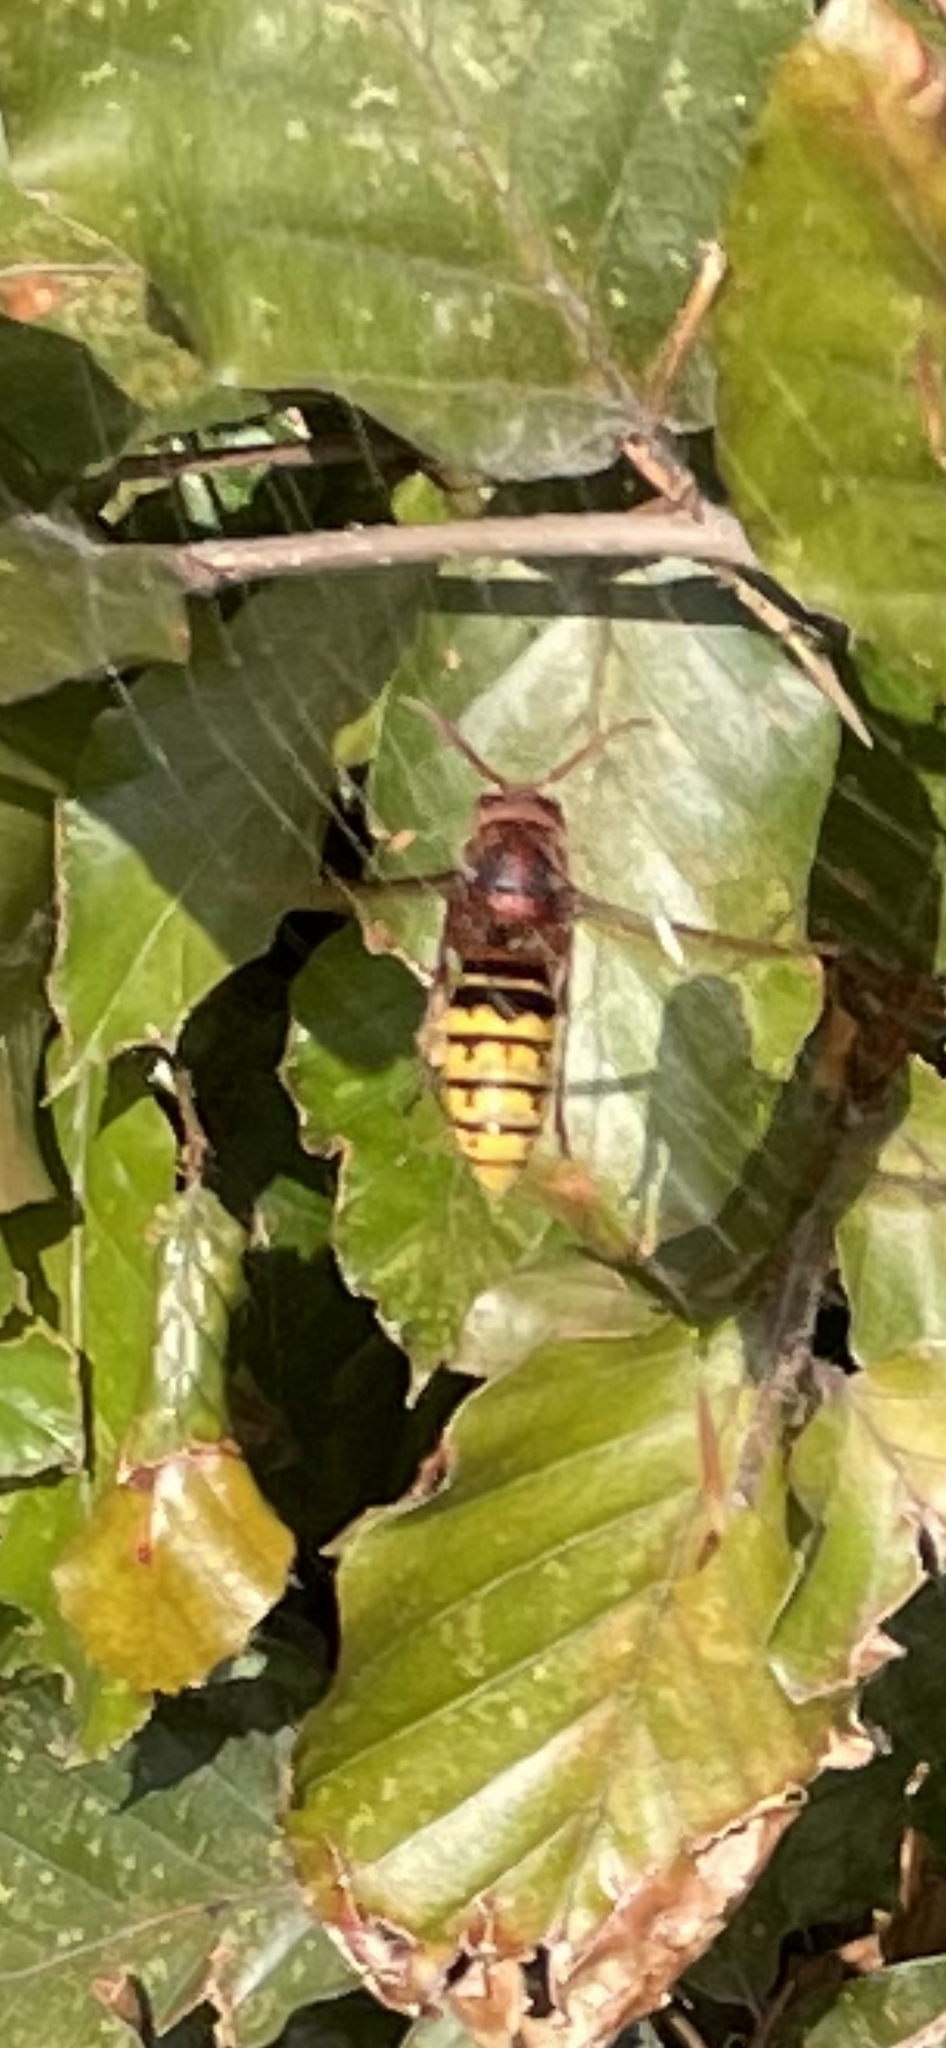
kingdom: Animalia
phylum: Arthropoda
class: Insecta
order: Hymenoptera
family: Vespidae
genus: Vespa
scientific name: Vespa crabro
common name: Hornet
